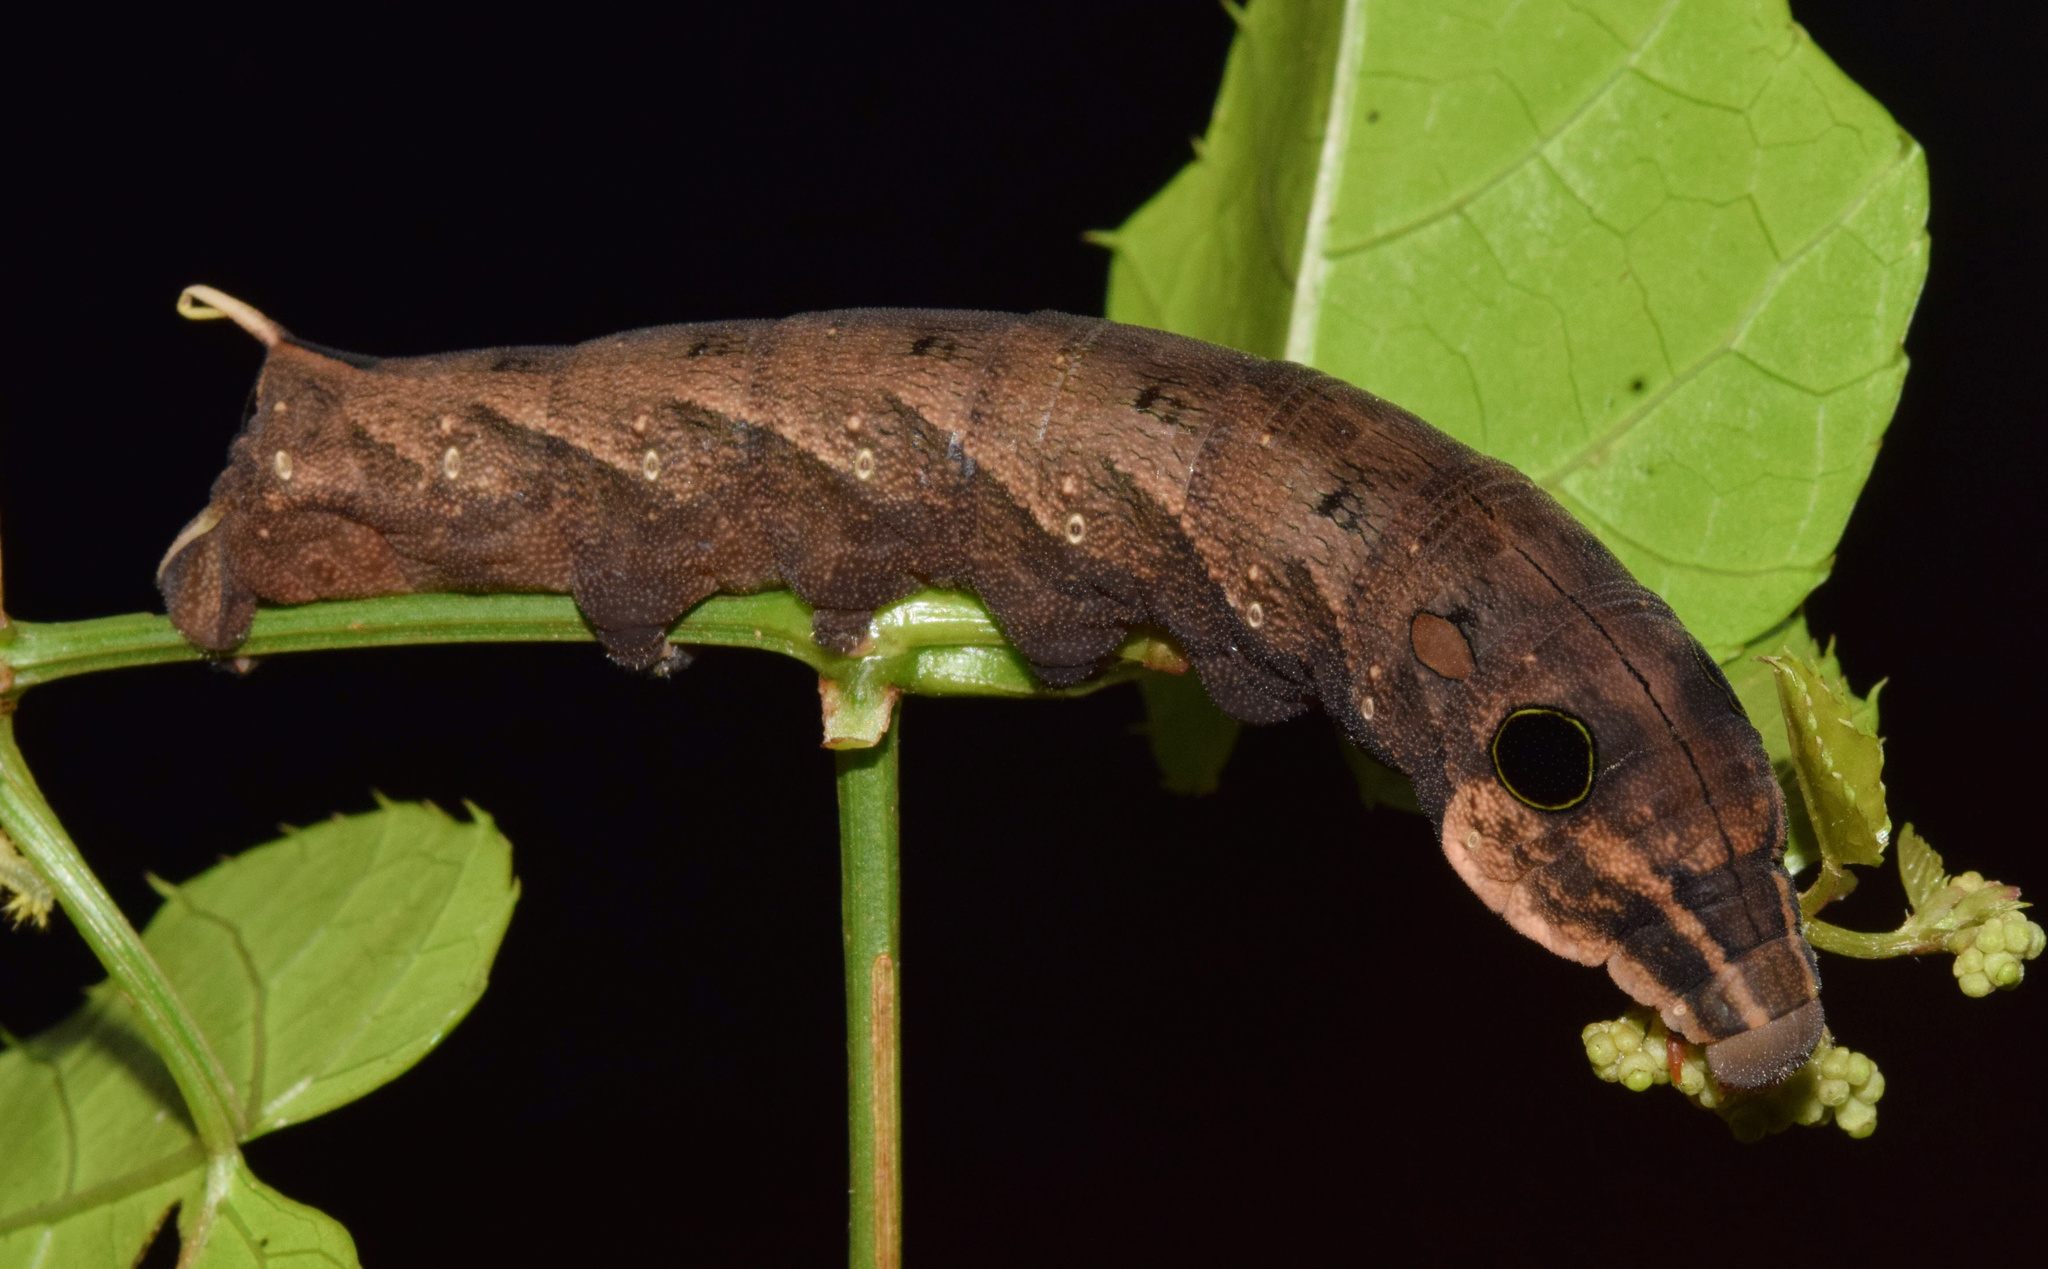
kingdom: Animalia
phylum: Arthropoda
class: Insecta
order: Lepidoptera
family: Sphingidae
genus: Hippotion
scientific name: Hippotion eson
